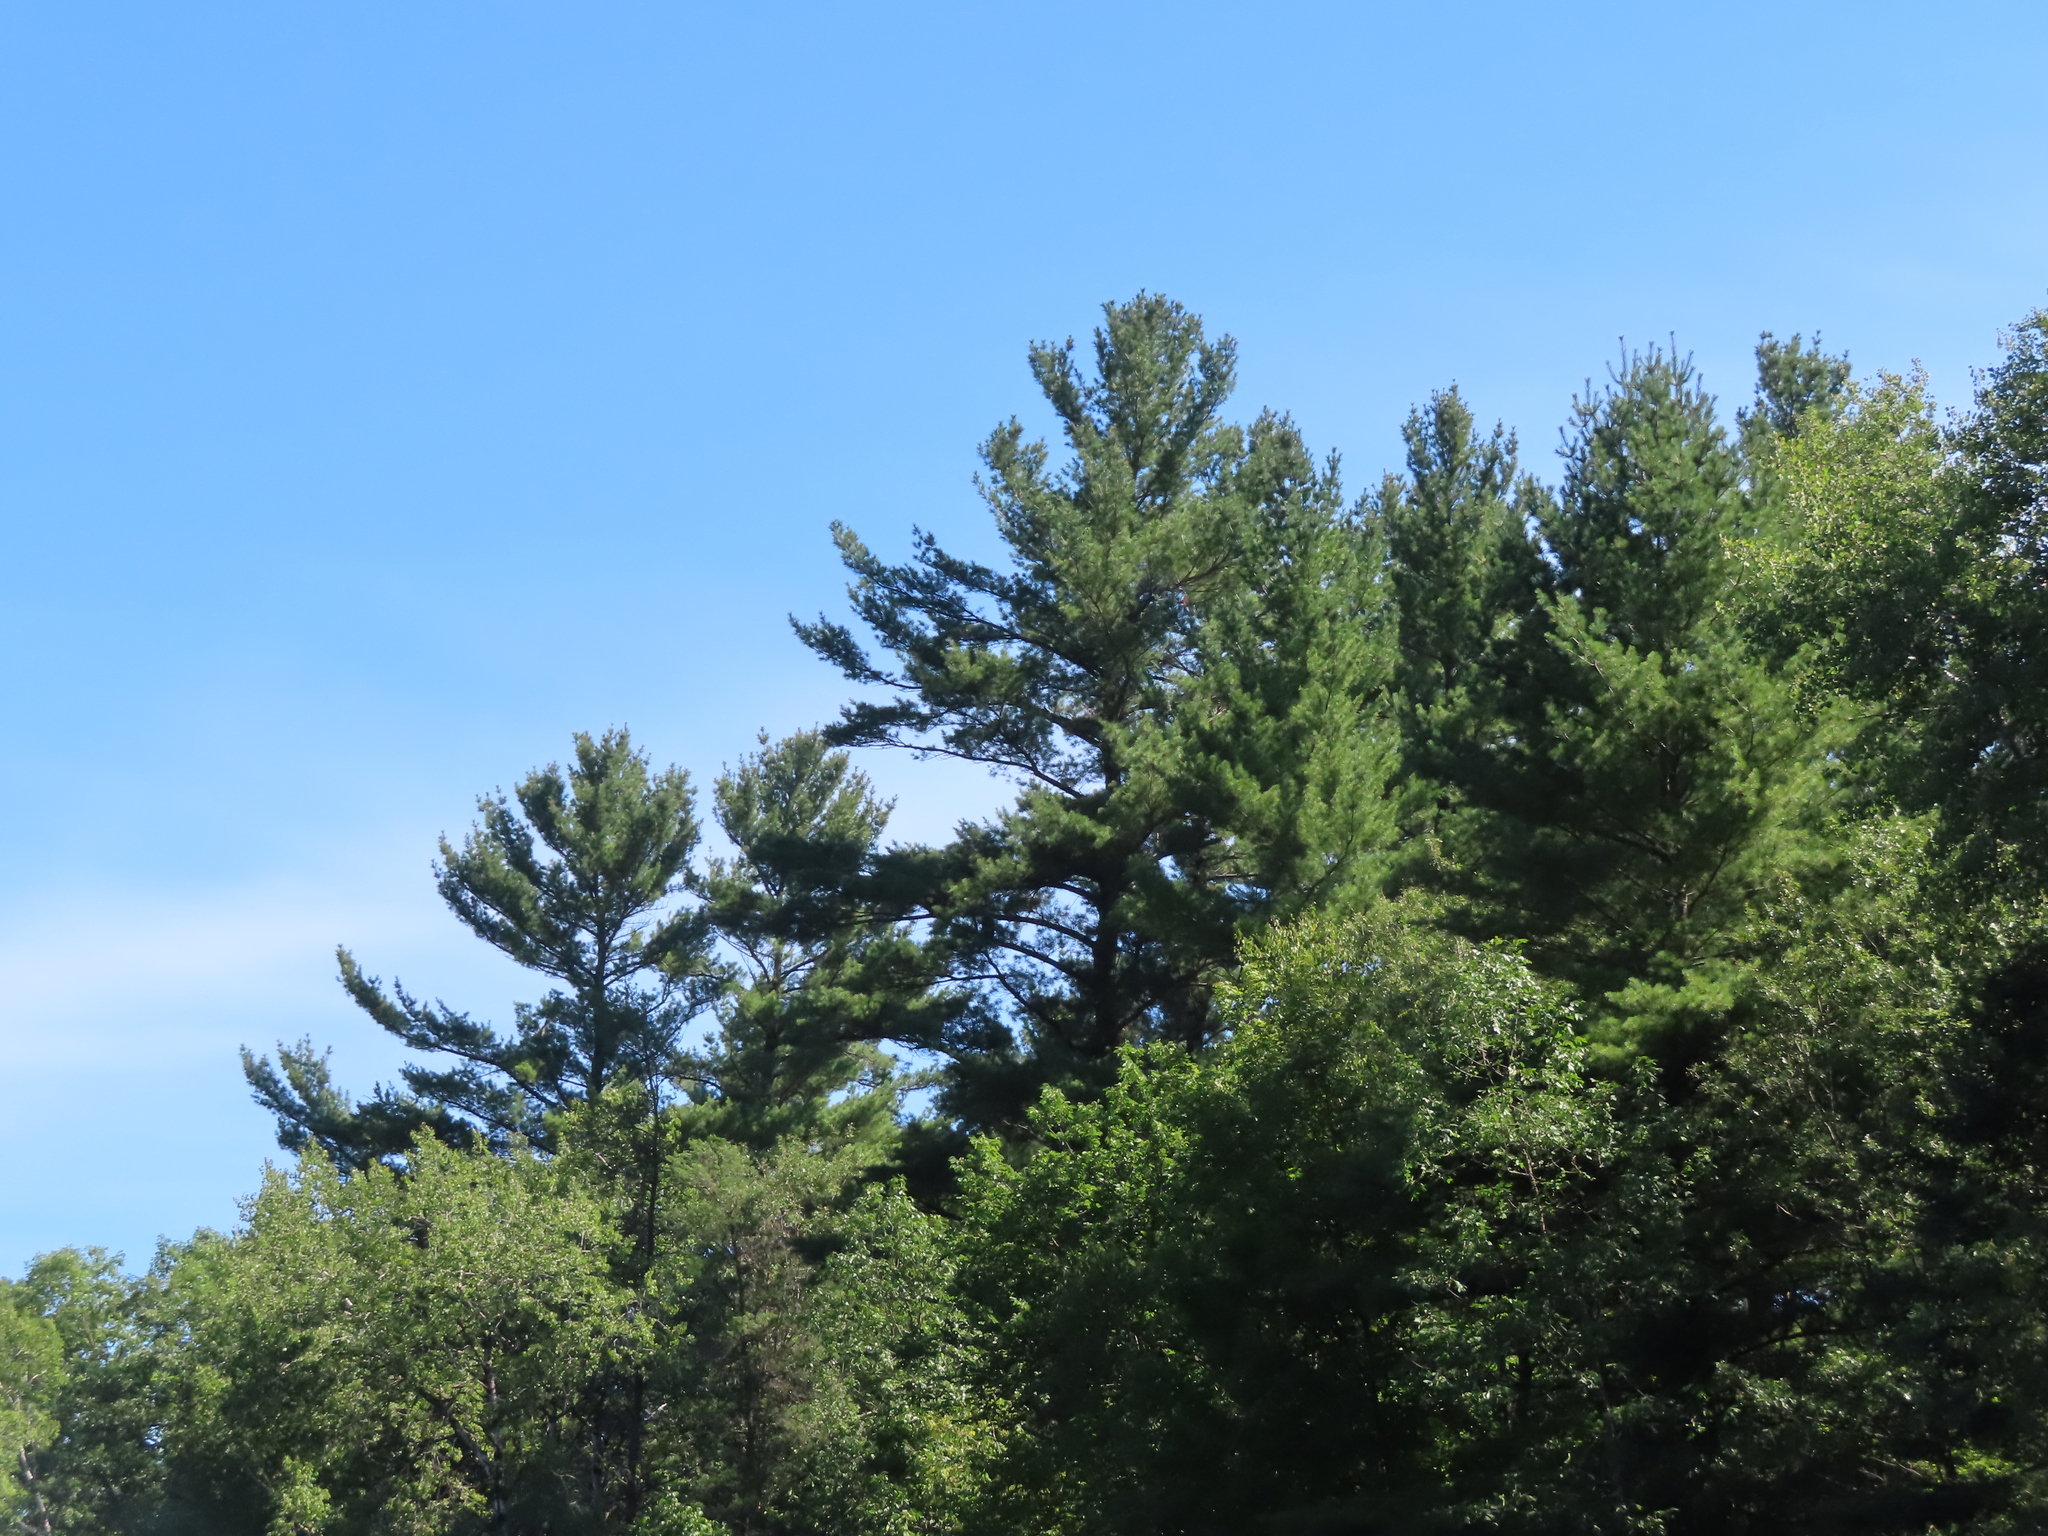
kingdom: Plantae
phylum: Tracheophyta
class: Pinopsida
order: Pinales
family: Pinaceae
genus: Pinus
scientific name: Pinus strobus
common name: Weymouth pine
